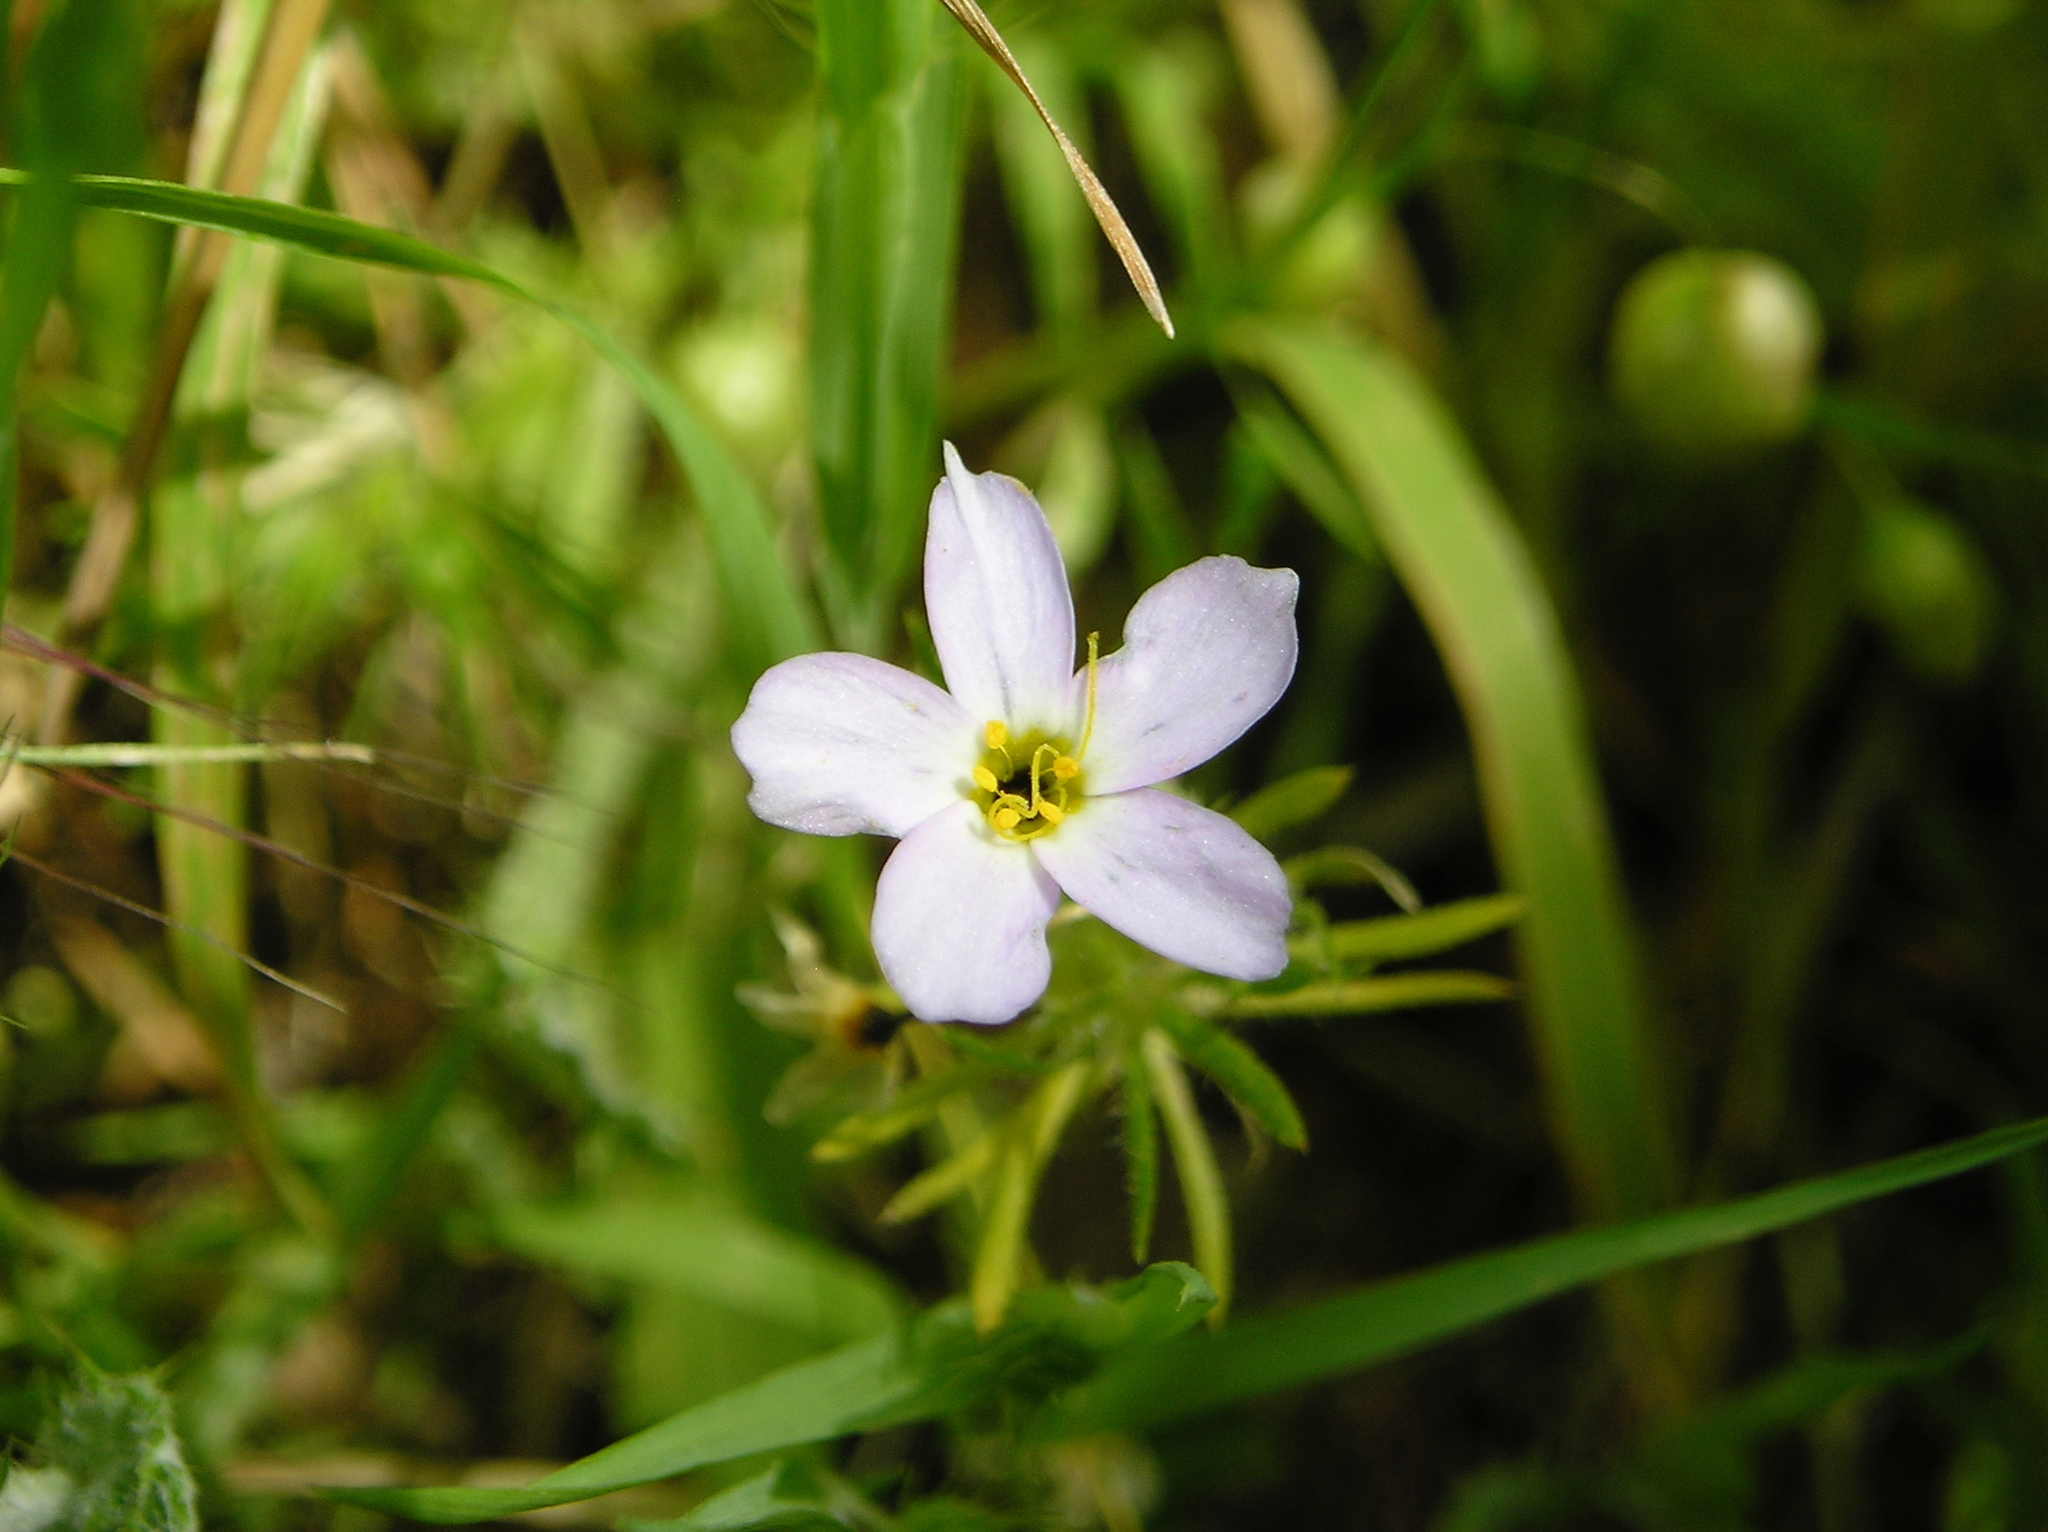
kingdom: Plantae
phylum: Tracheophyta
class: Magnoliopsida
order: Ericales
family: Polemoniaceae
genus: Leptosiphon
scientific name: Leptosiphon androsaceus
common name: False babystars
